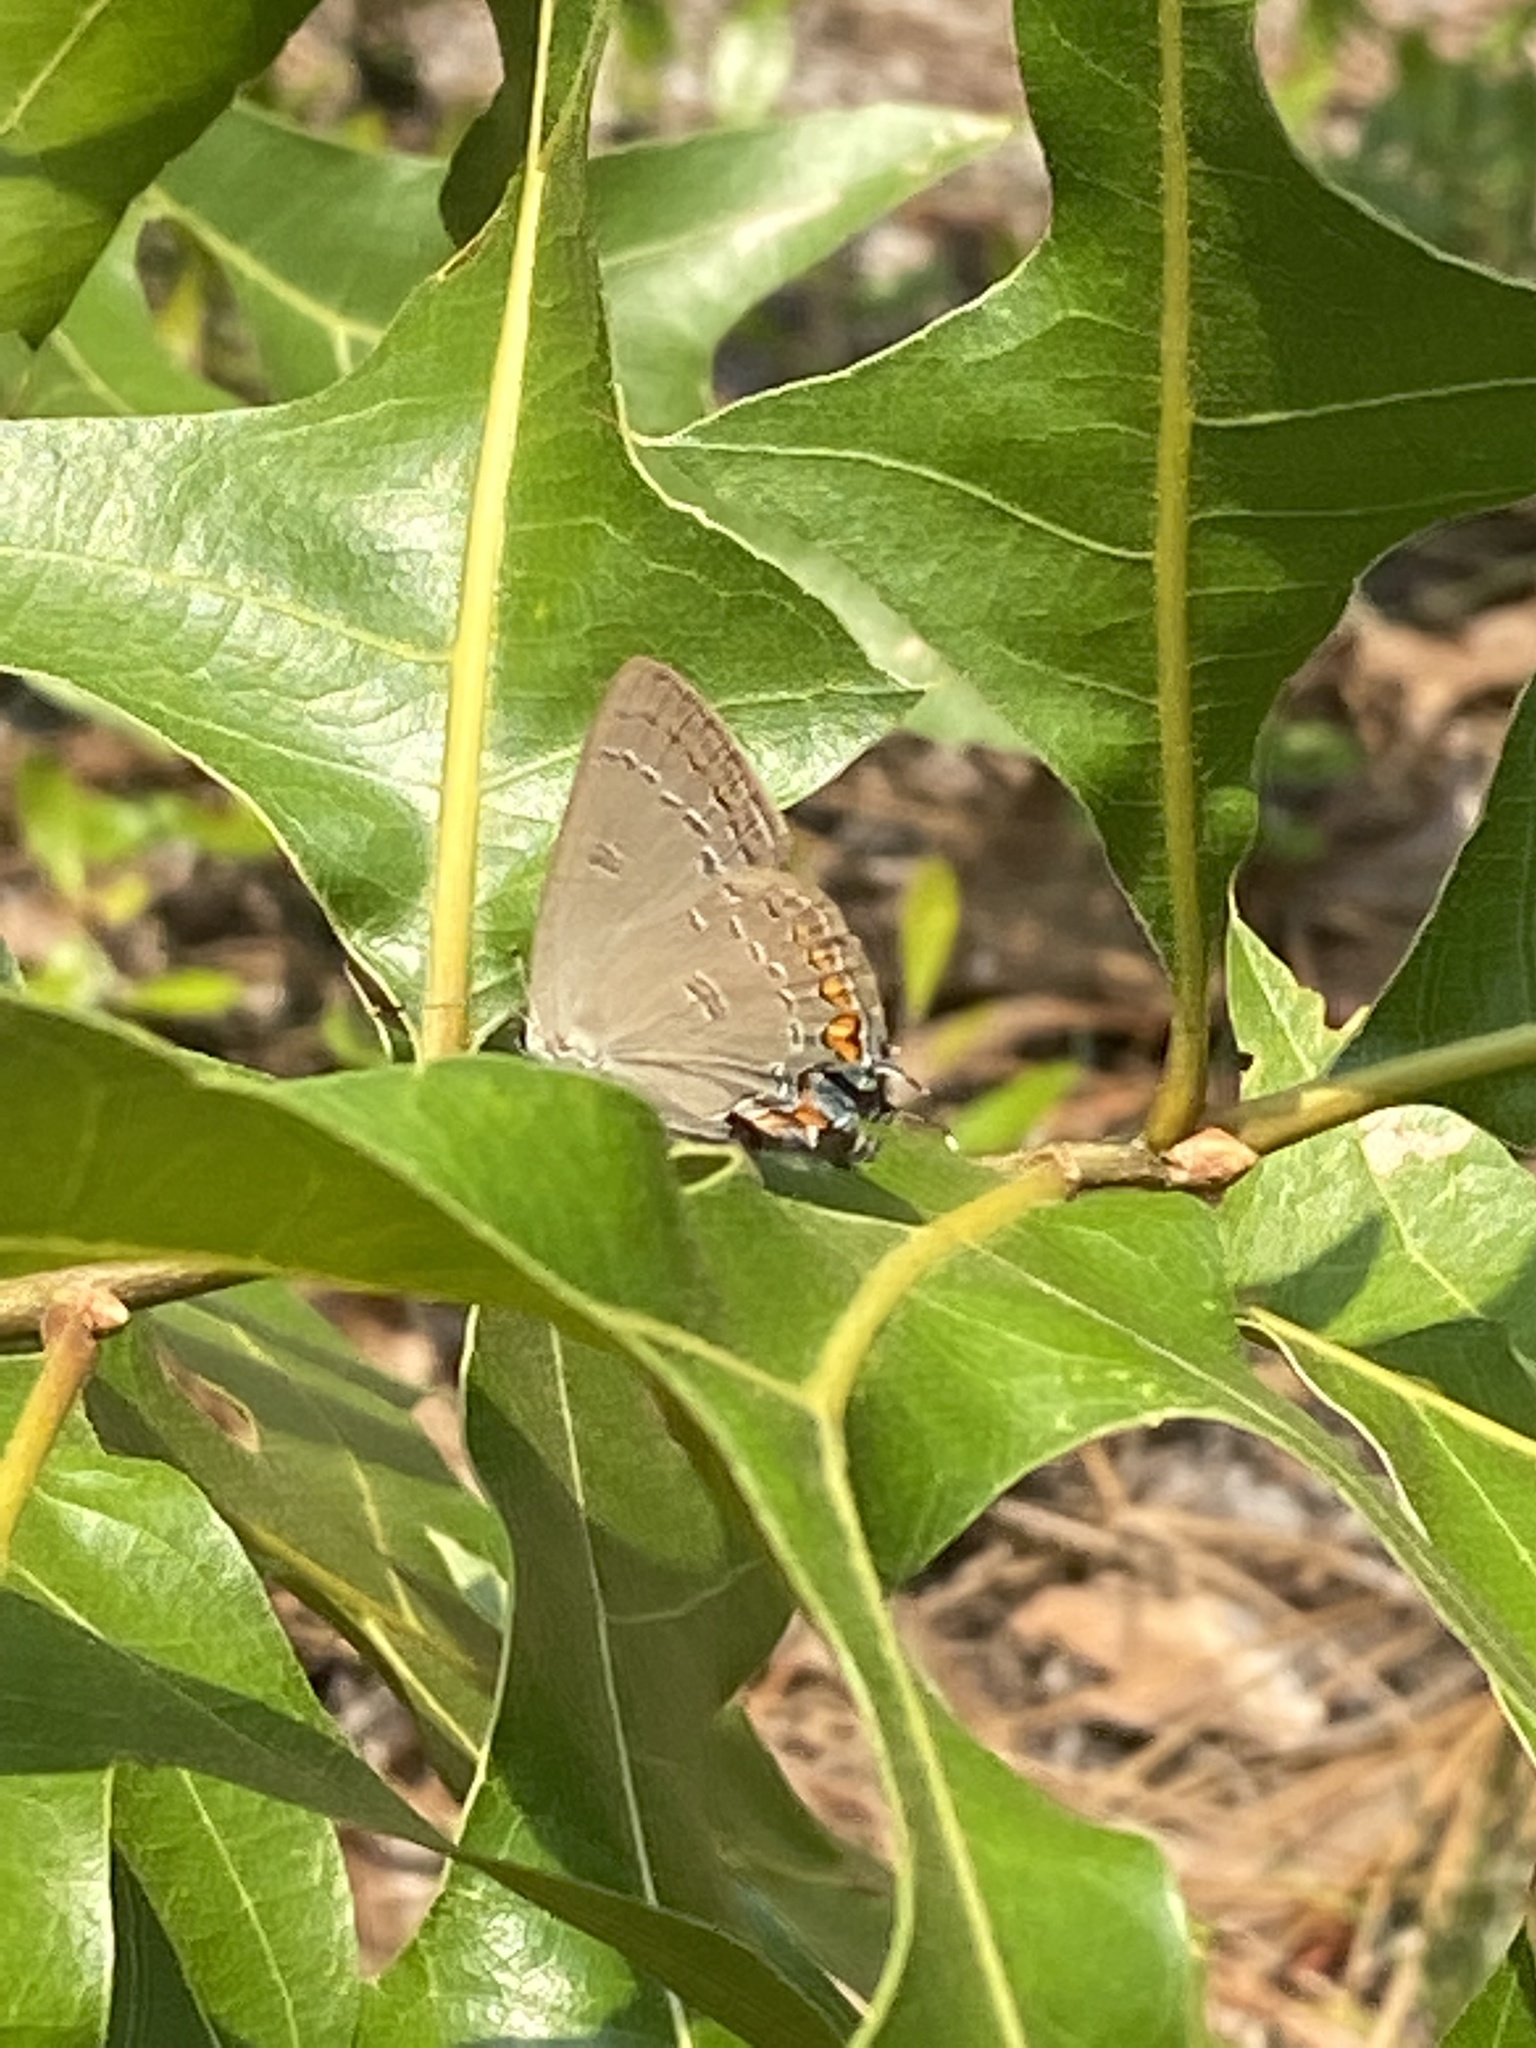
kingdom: Animalia
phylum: Arthropoda
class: Insecta
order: Lepidoptera
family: Lycaenidae
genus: Satyrium
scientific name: Satyrium edwardsii
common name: Edwards' hairstreak
